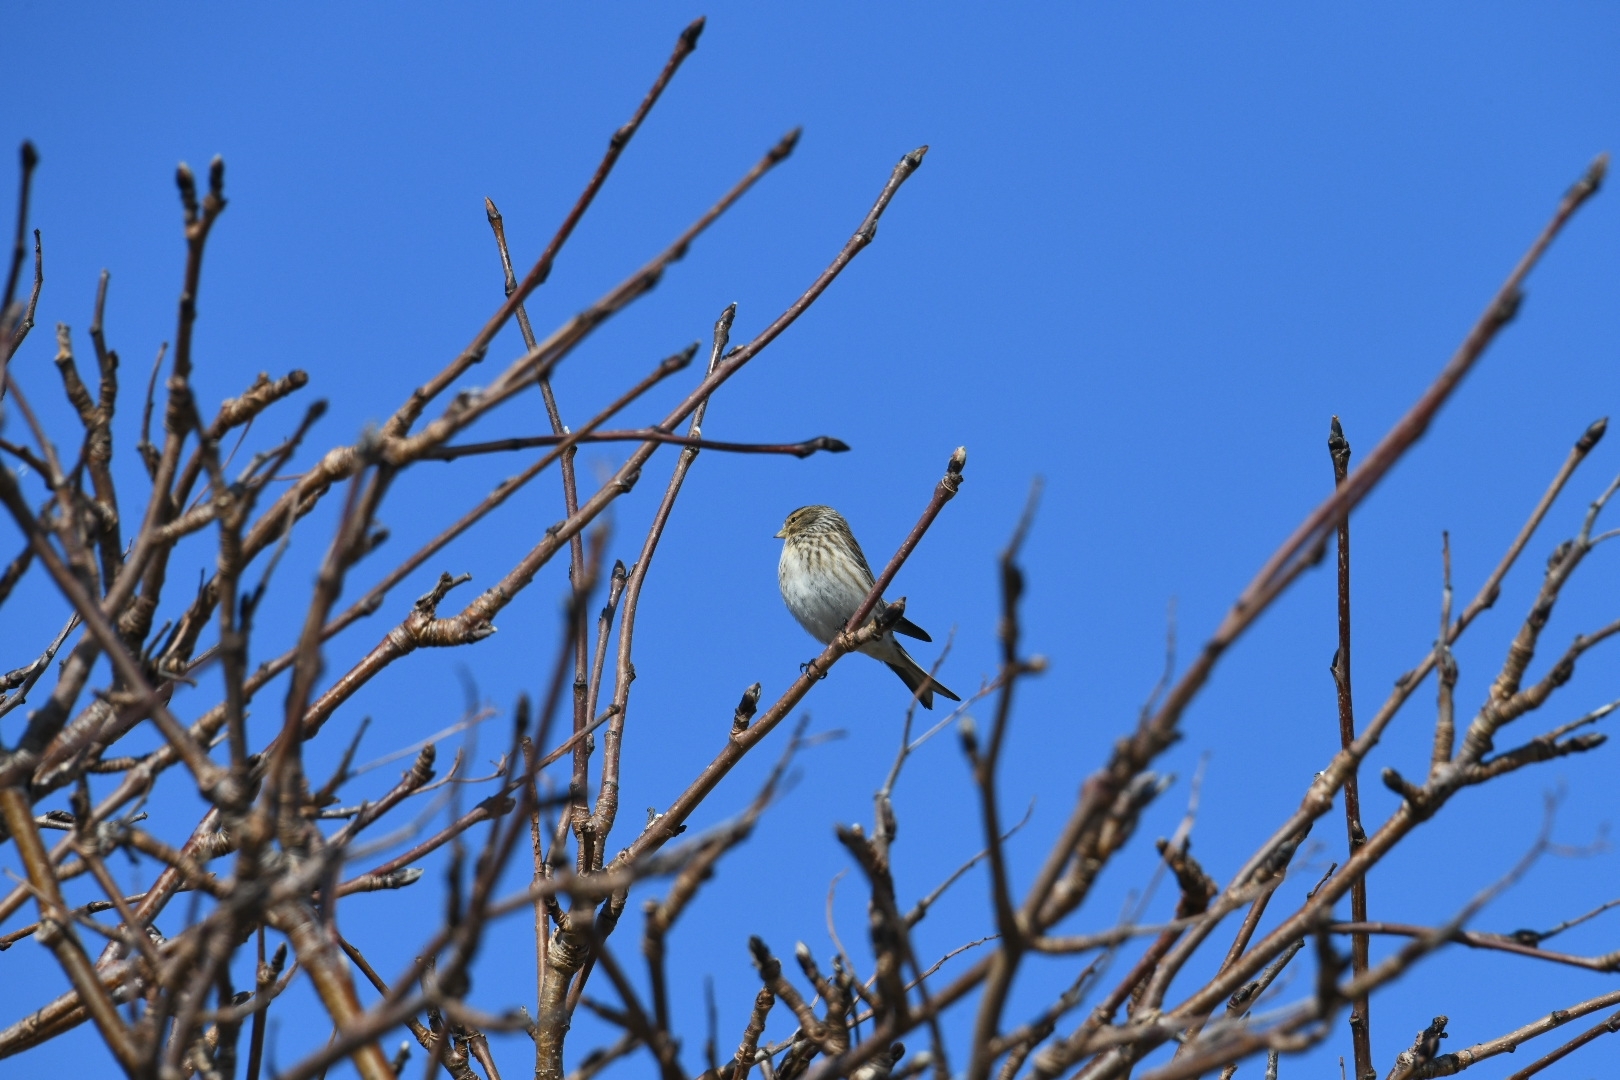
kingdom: Animalia
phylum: Chordata
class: Aves
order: Passeriformes
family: Fringillidae
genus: Linaria
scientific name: Linaria flavirostris
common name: Twite
